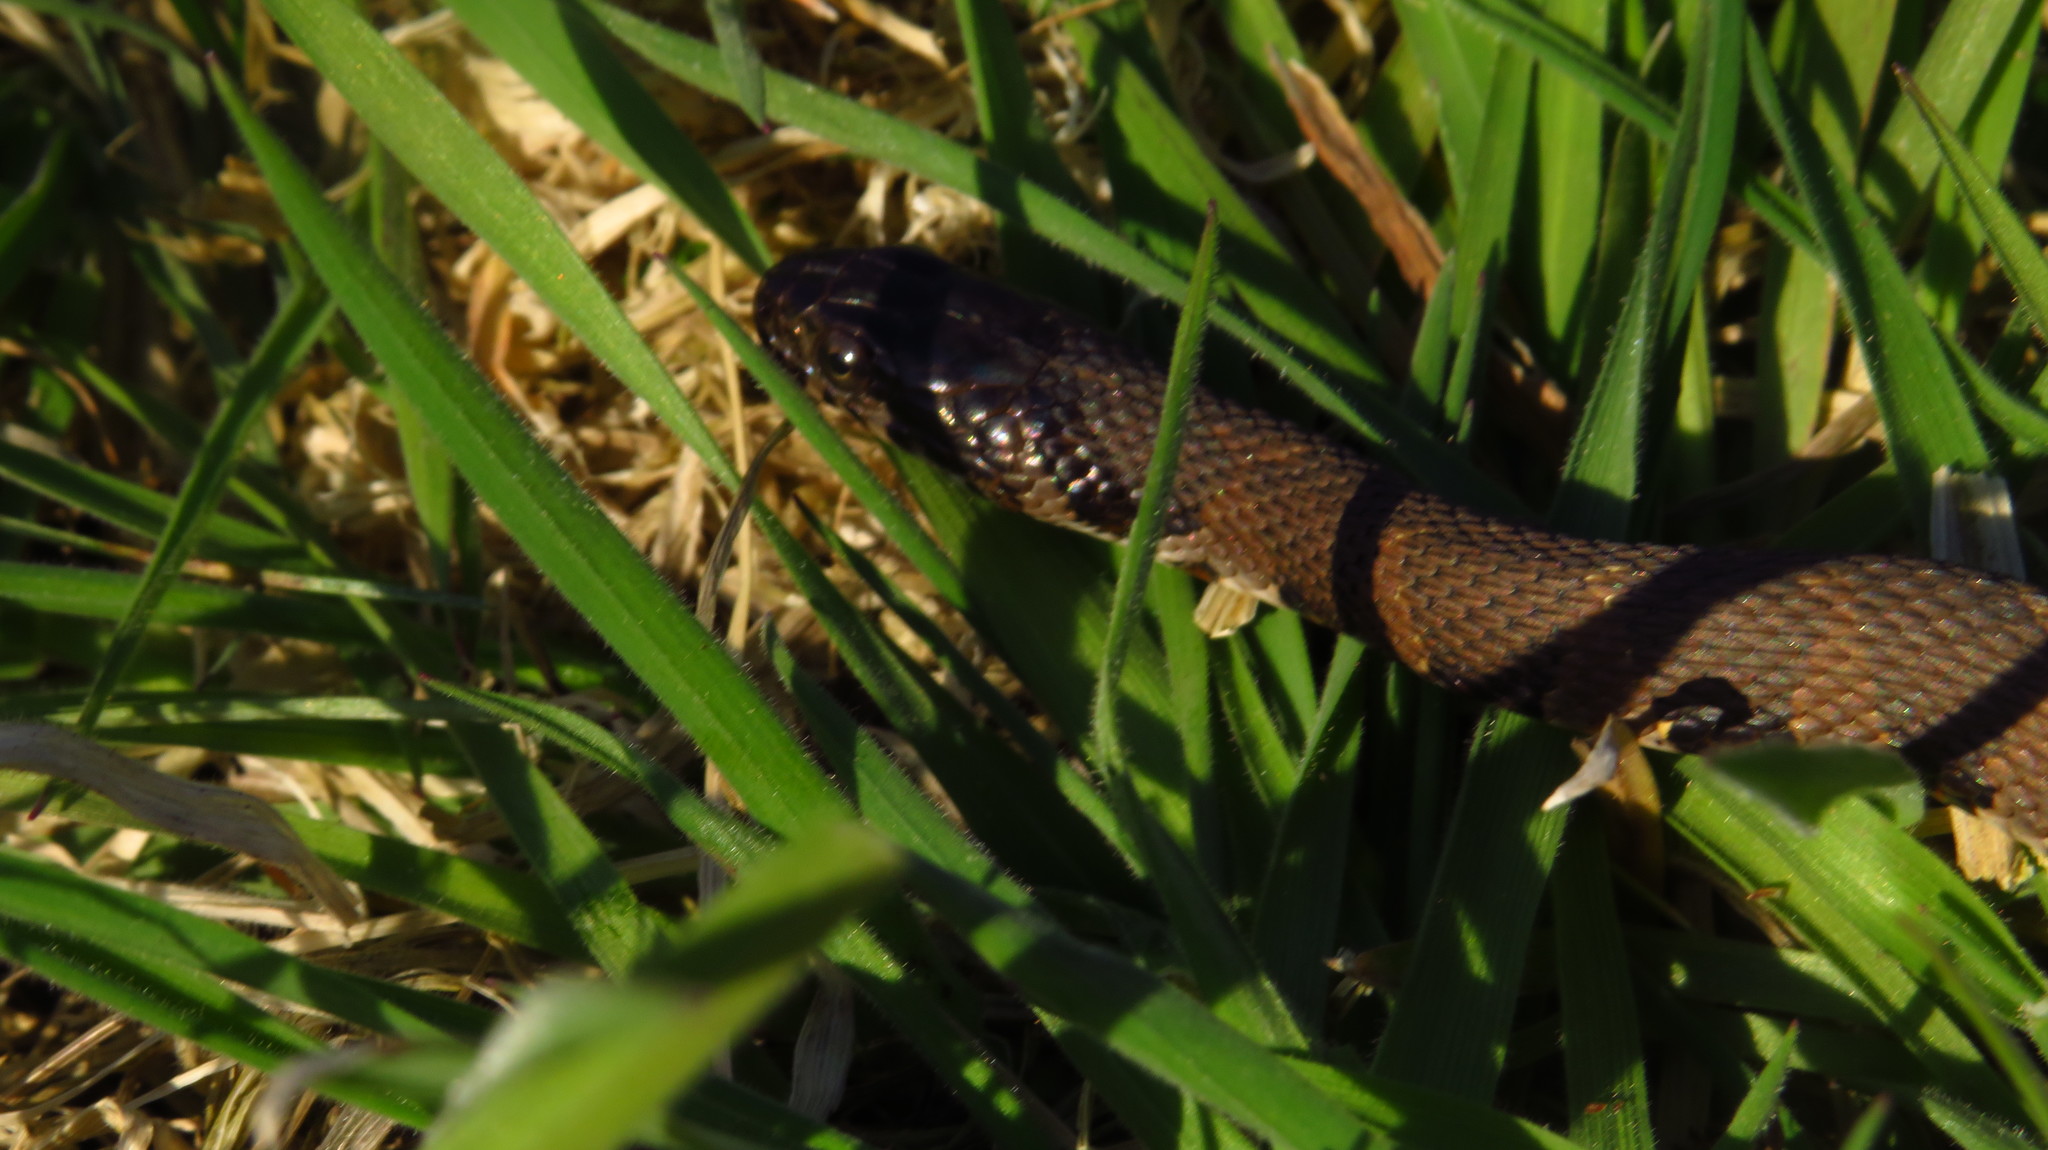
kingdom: Animalia
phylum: Chordata
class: Squamata
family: Colubridae
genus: Nerodia
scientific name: Nerodia sipedon
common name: Northern water snake
